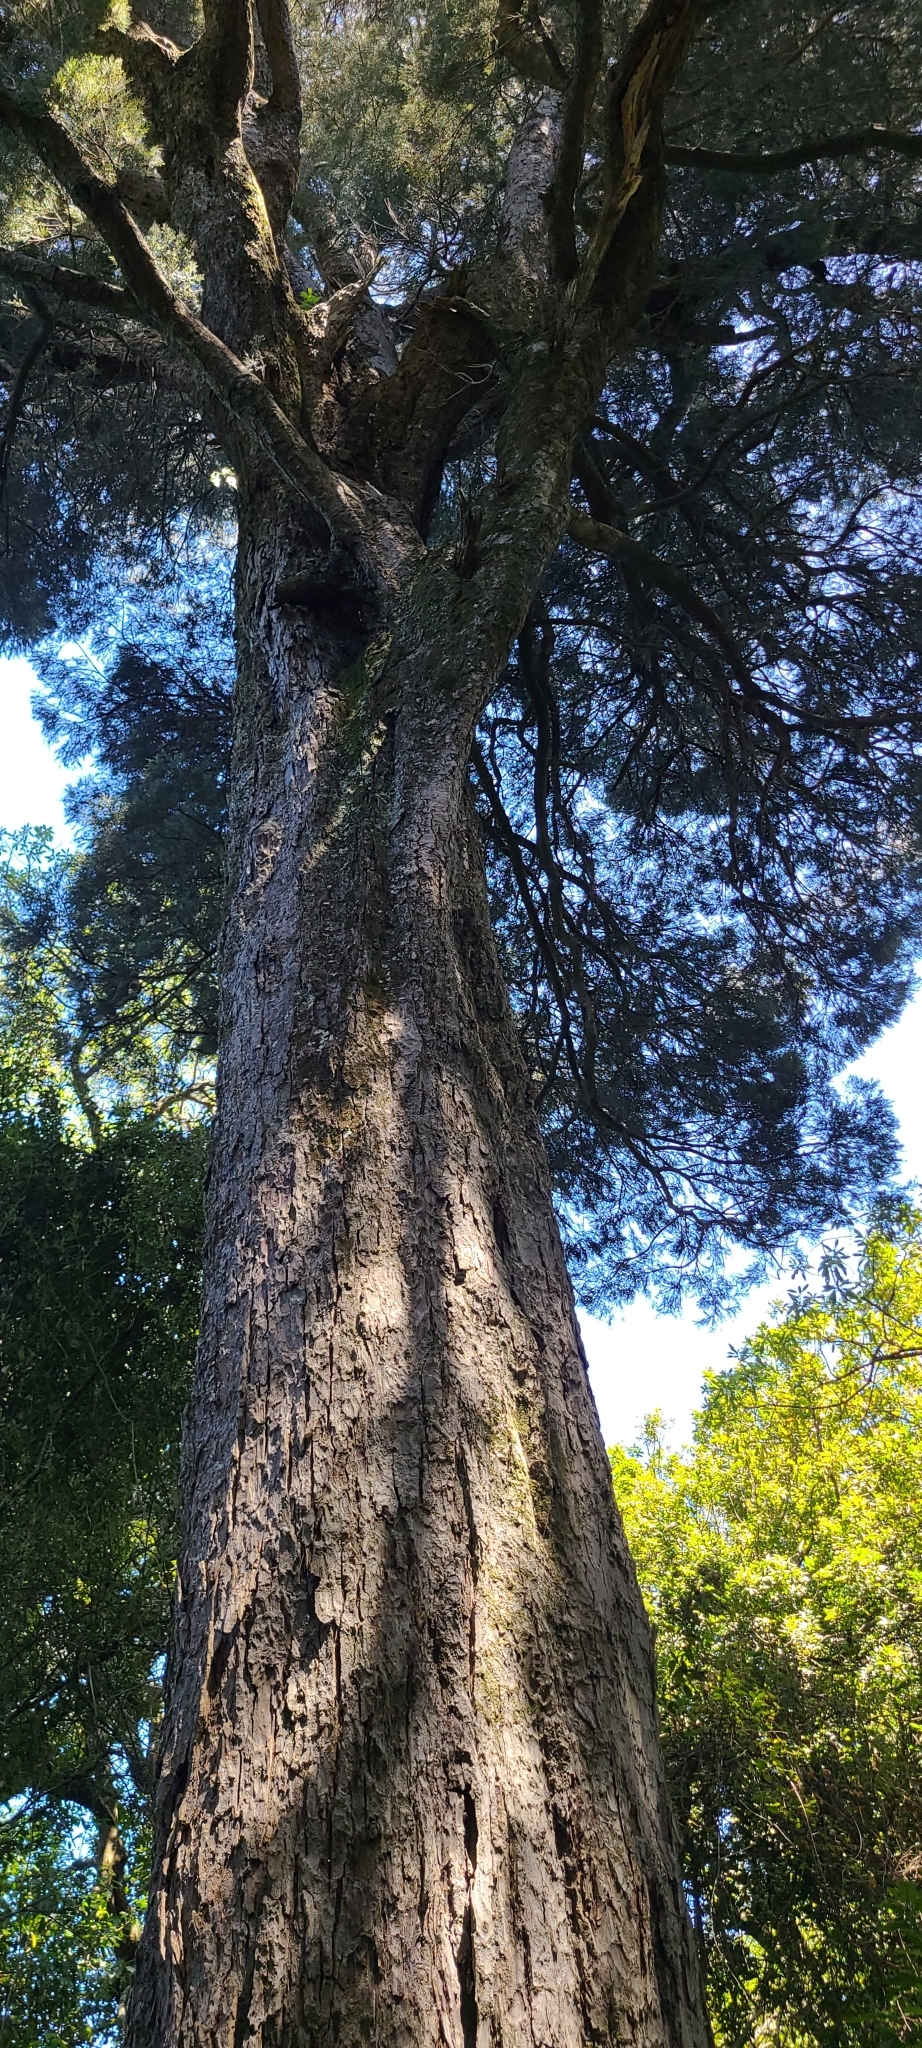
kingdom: Plantae
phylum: Tracheophyta
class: Pinopsida
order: Pinales
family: Podocarpaceae
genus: Dacrycarpus
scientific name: Dacrycarpus dacrydioides
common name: White pine
